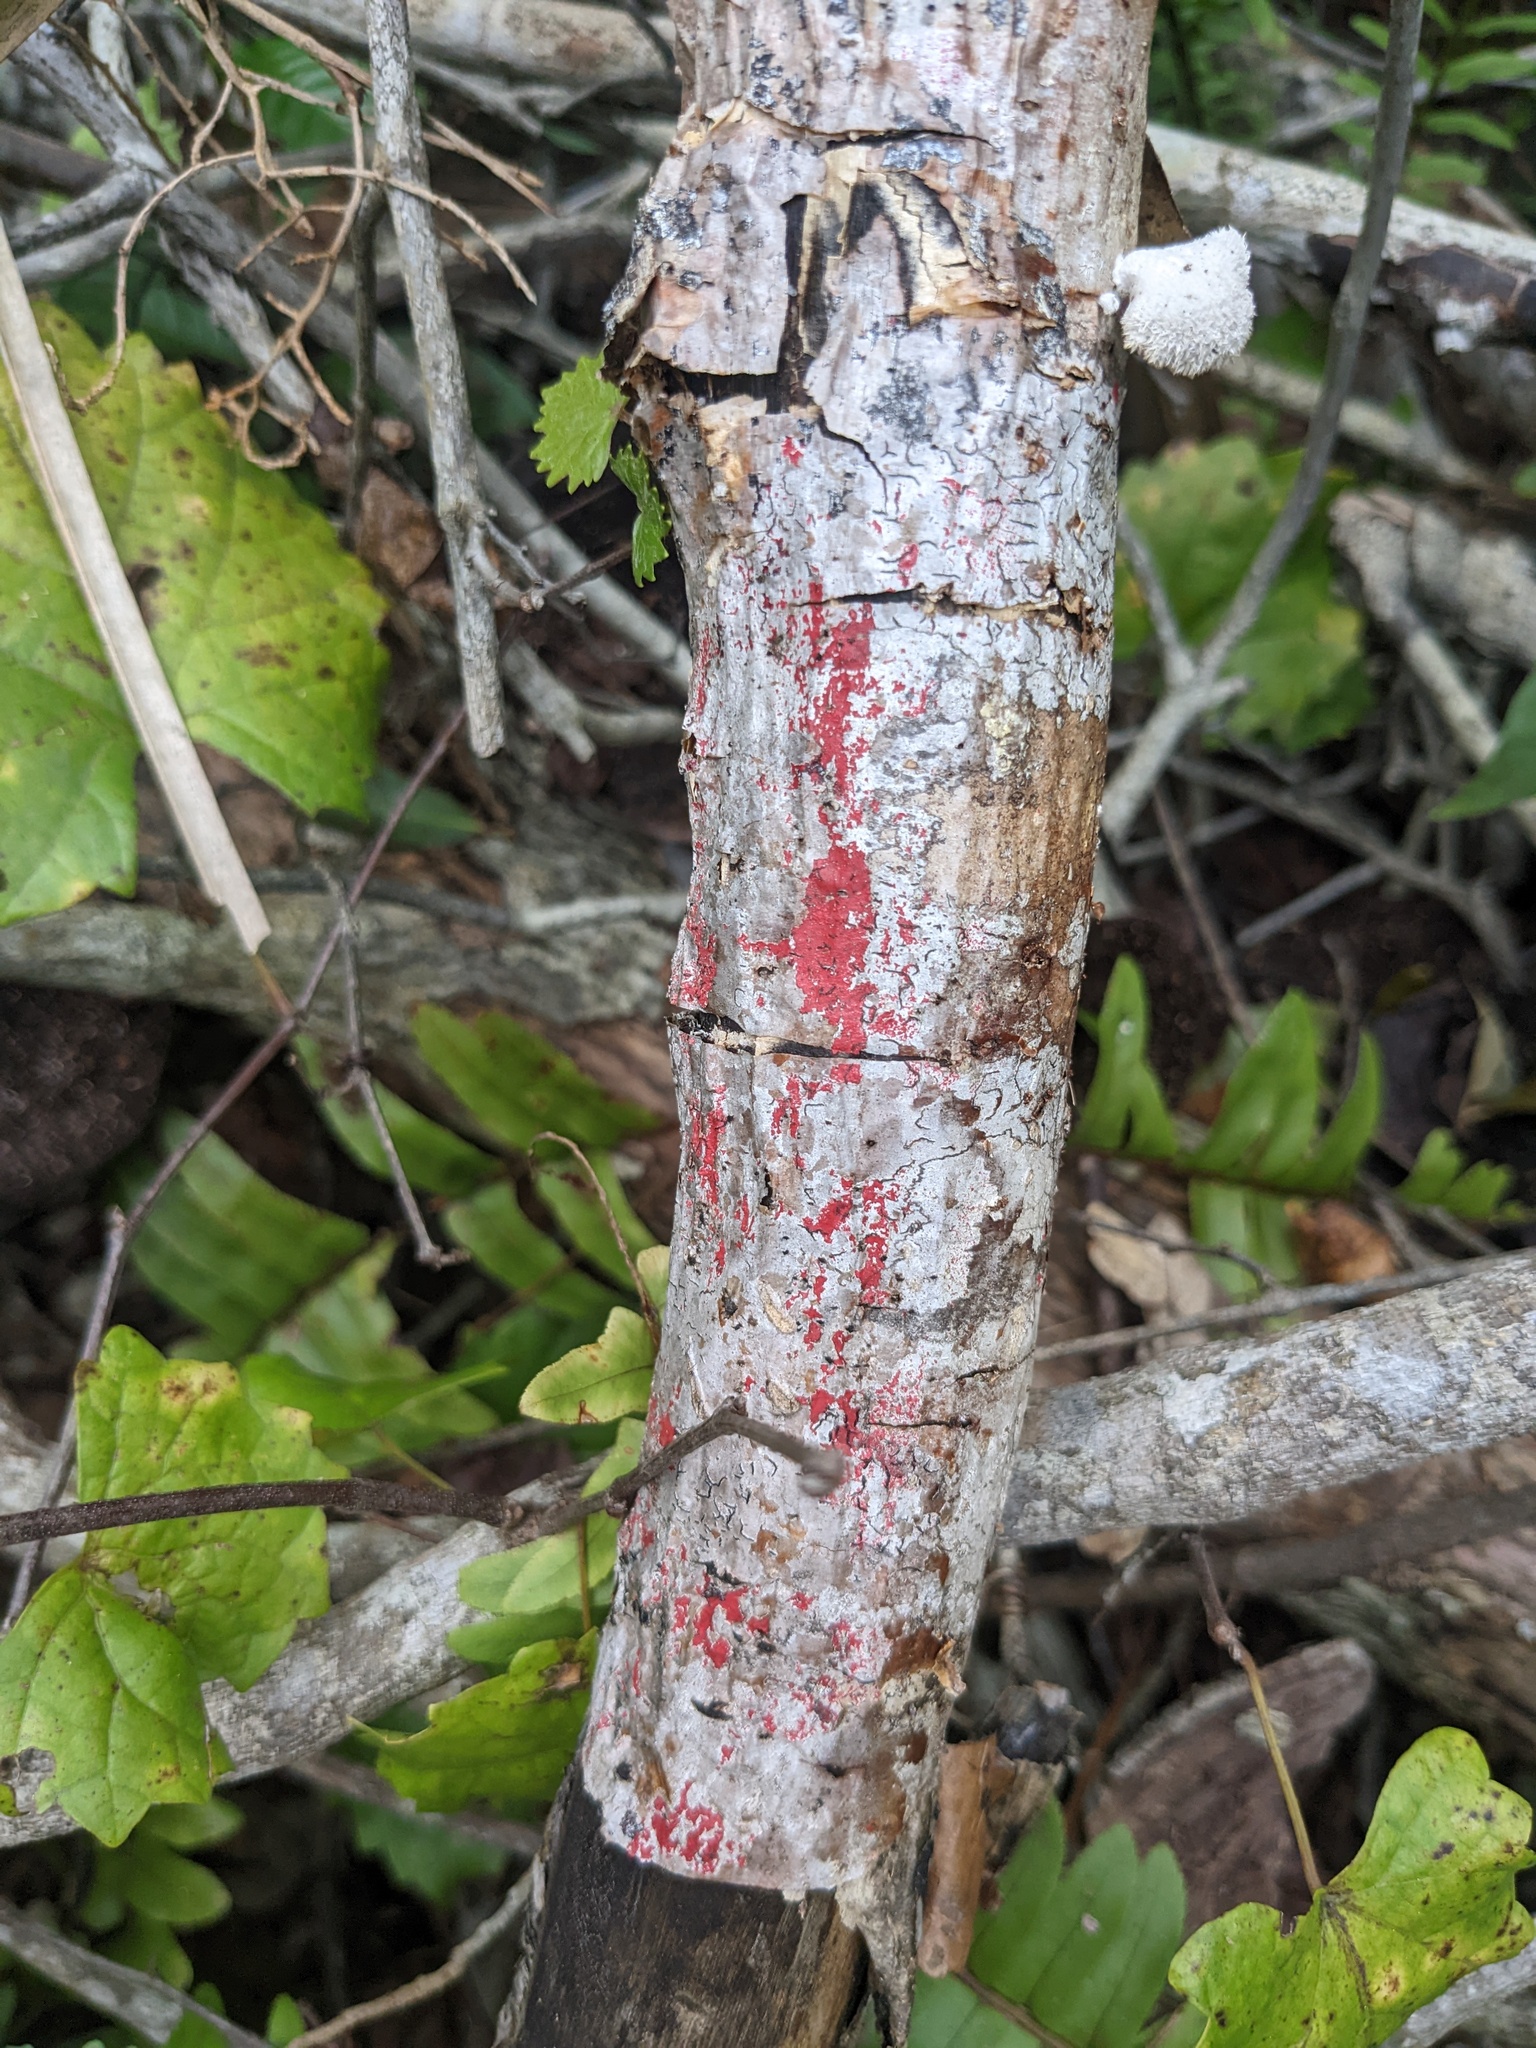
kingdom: Fungi
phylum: Ascomycota
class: Arthoniomycetes
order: Arthoniales
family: Arthoniaceae
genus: Herpothallon
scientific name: Herpothallon rubrocinctum
